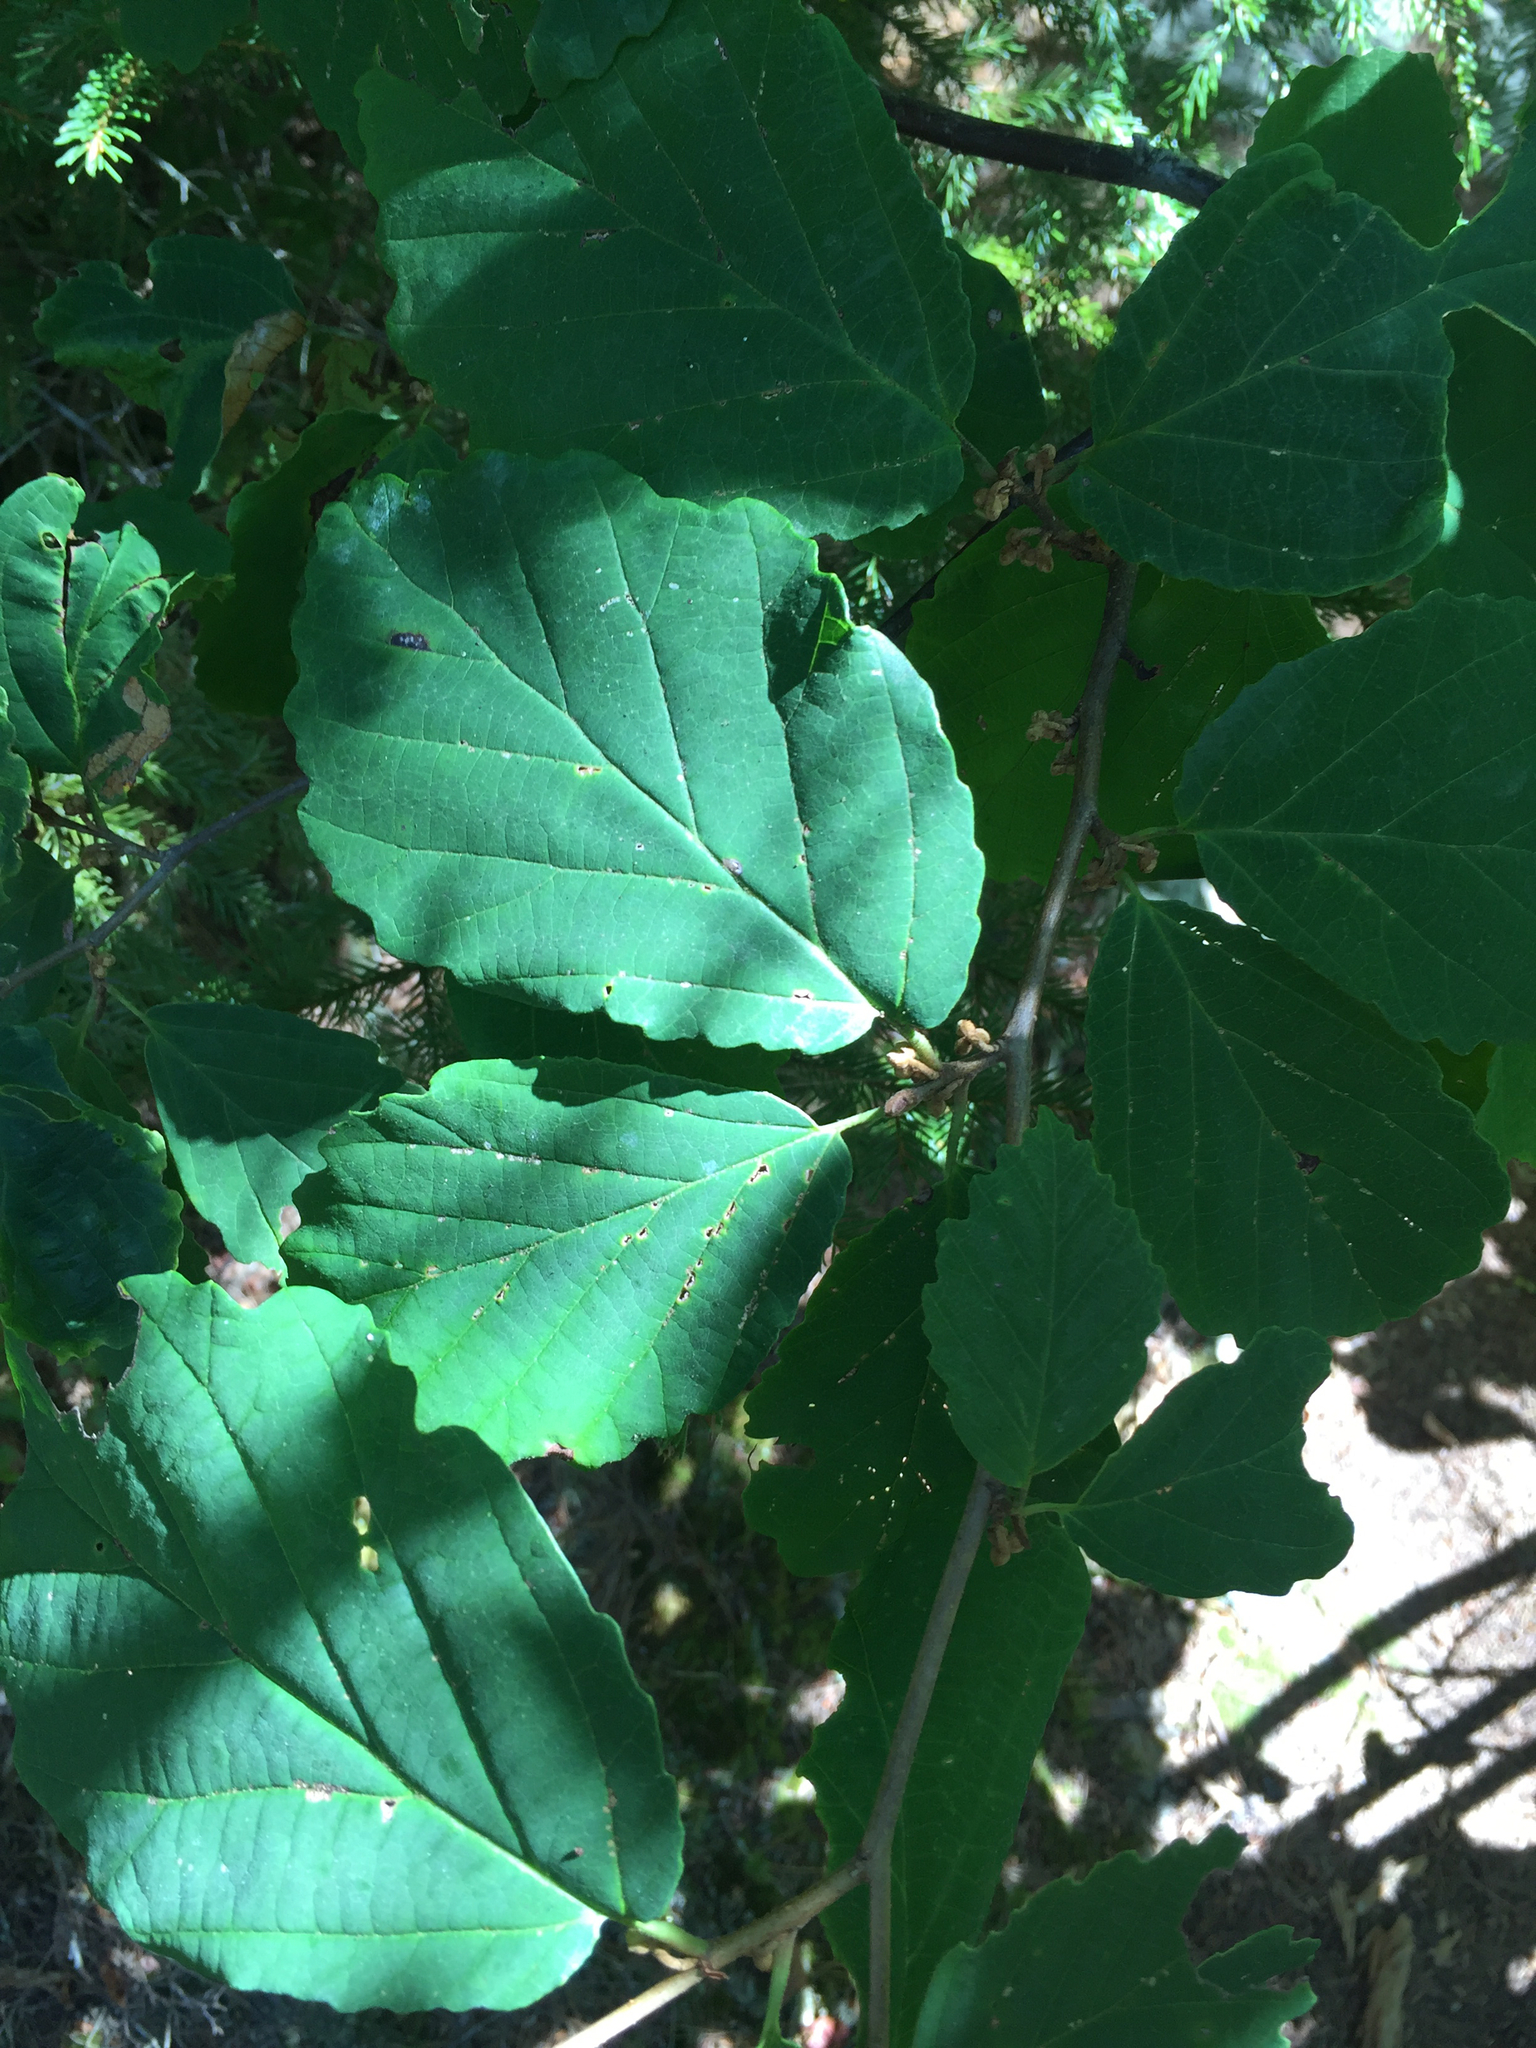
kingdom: Plantae
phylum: Tracheophyta
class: Magnoliopsida
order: Saxifragales
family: Hamamelidaceae
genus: Hamamelis
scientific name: Hamamelis virginiana
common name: Witch-hazel
